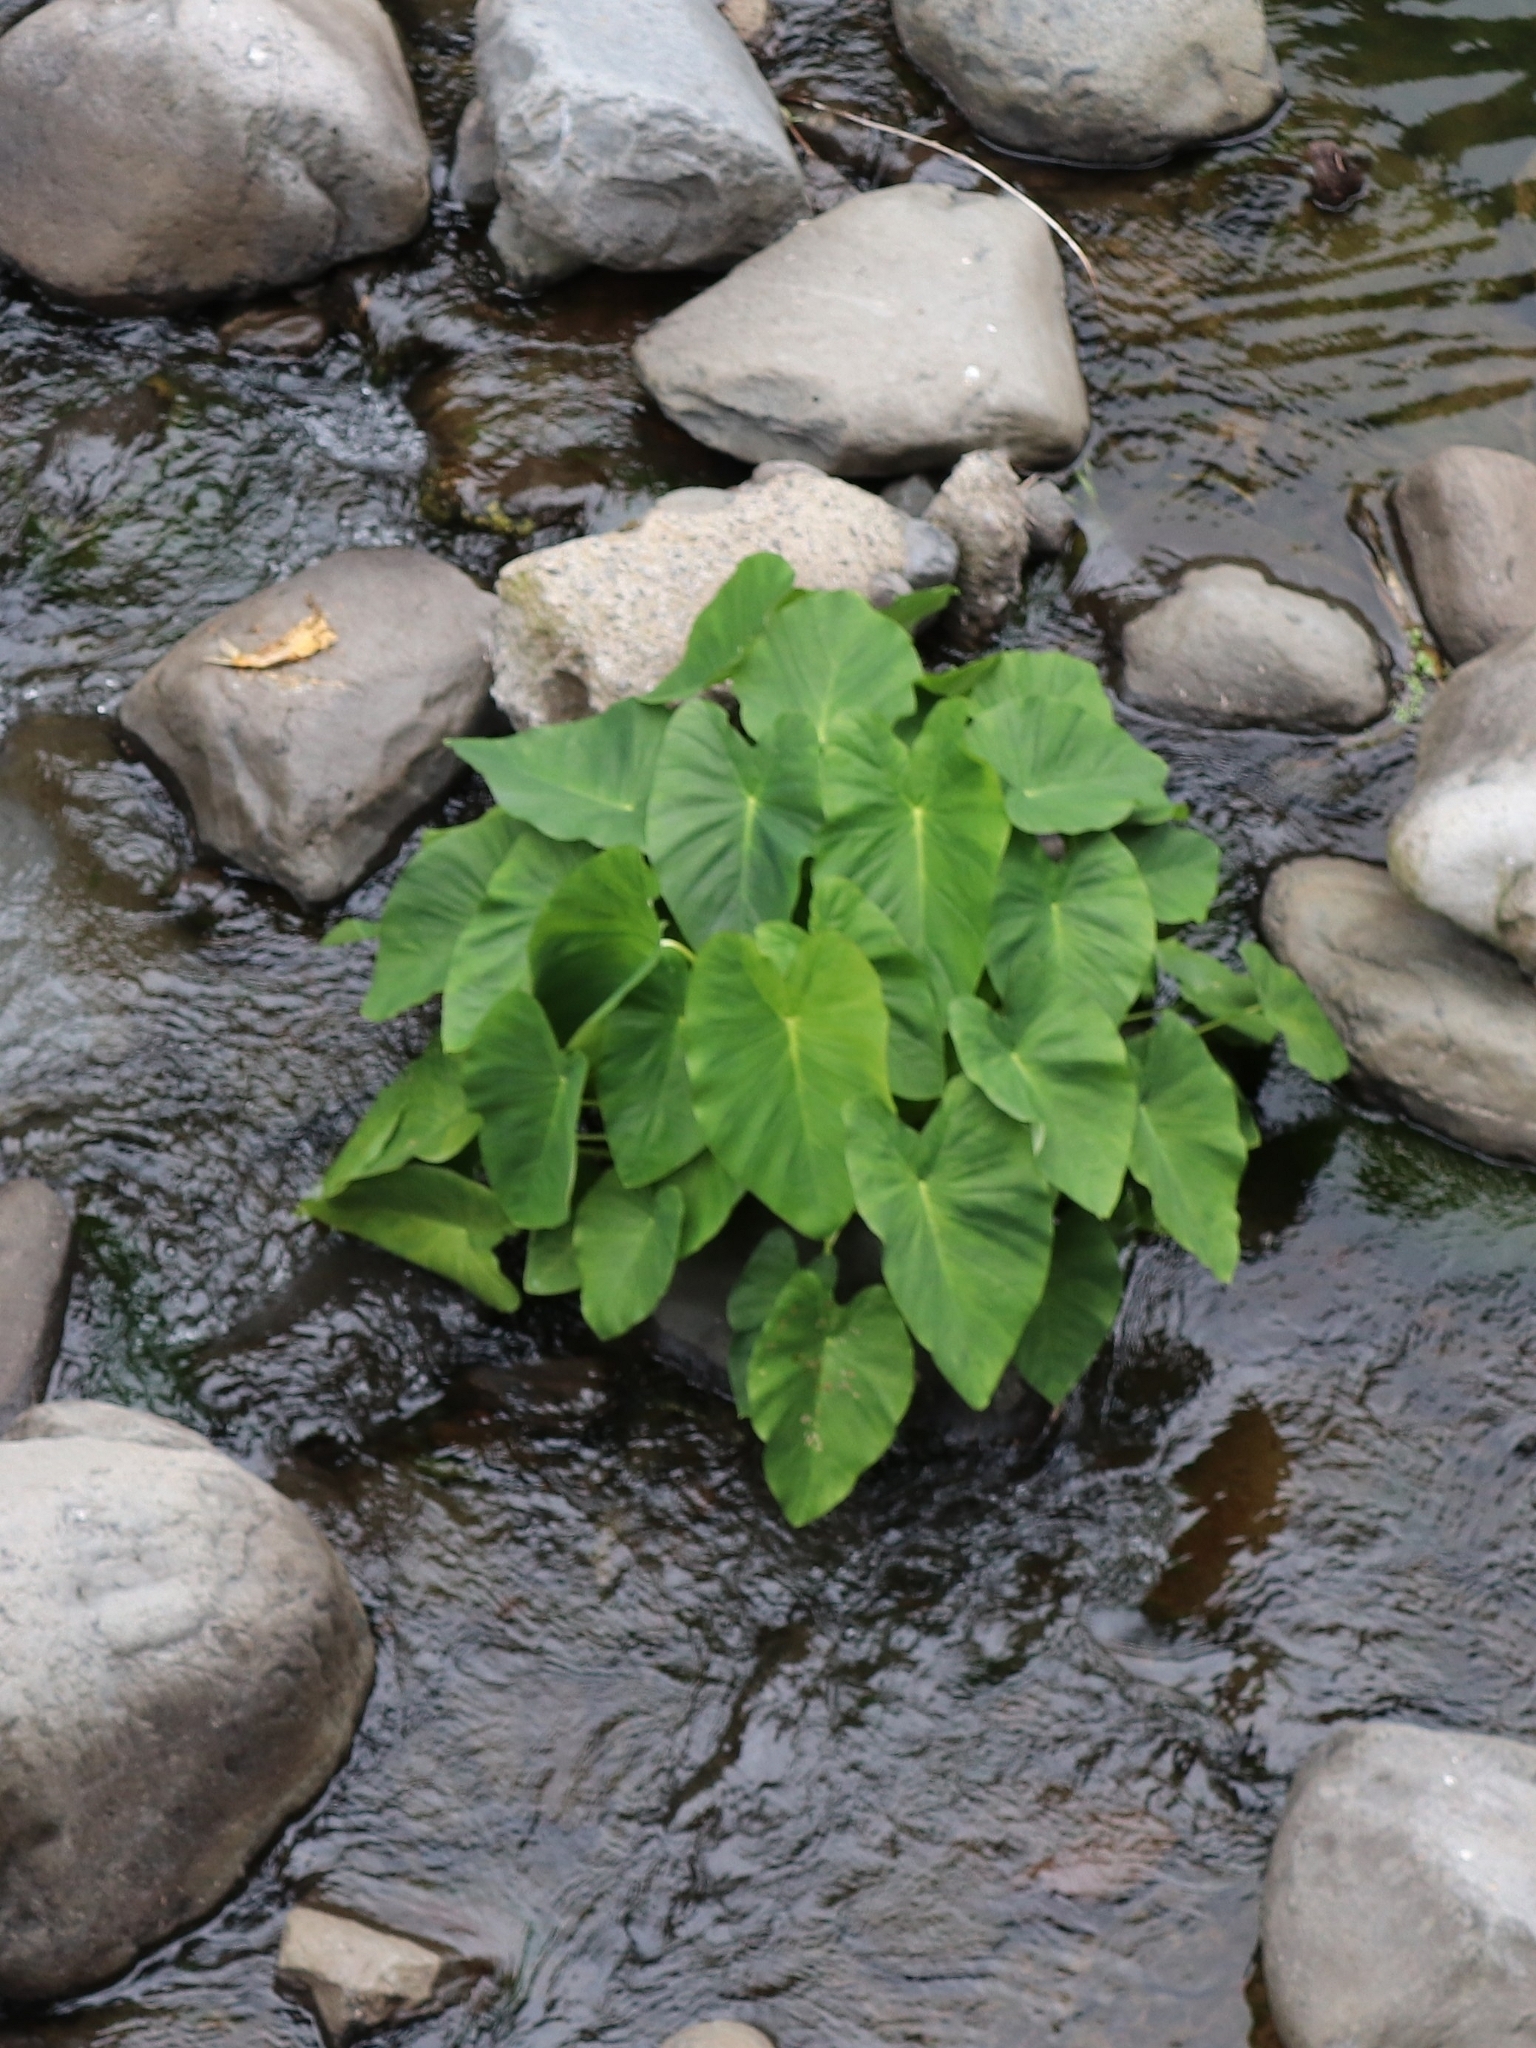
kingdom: Plantae
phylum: Tracheophyta
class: Liliopsida
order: Alismatales
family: Araceae
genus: Colocasia
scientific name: Colocasia esculenta
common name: Taro
